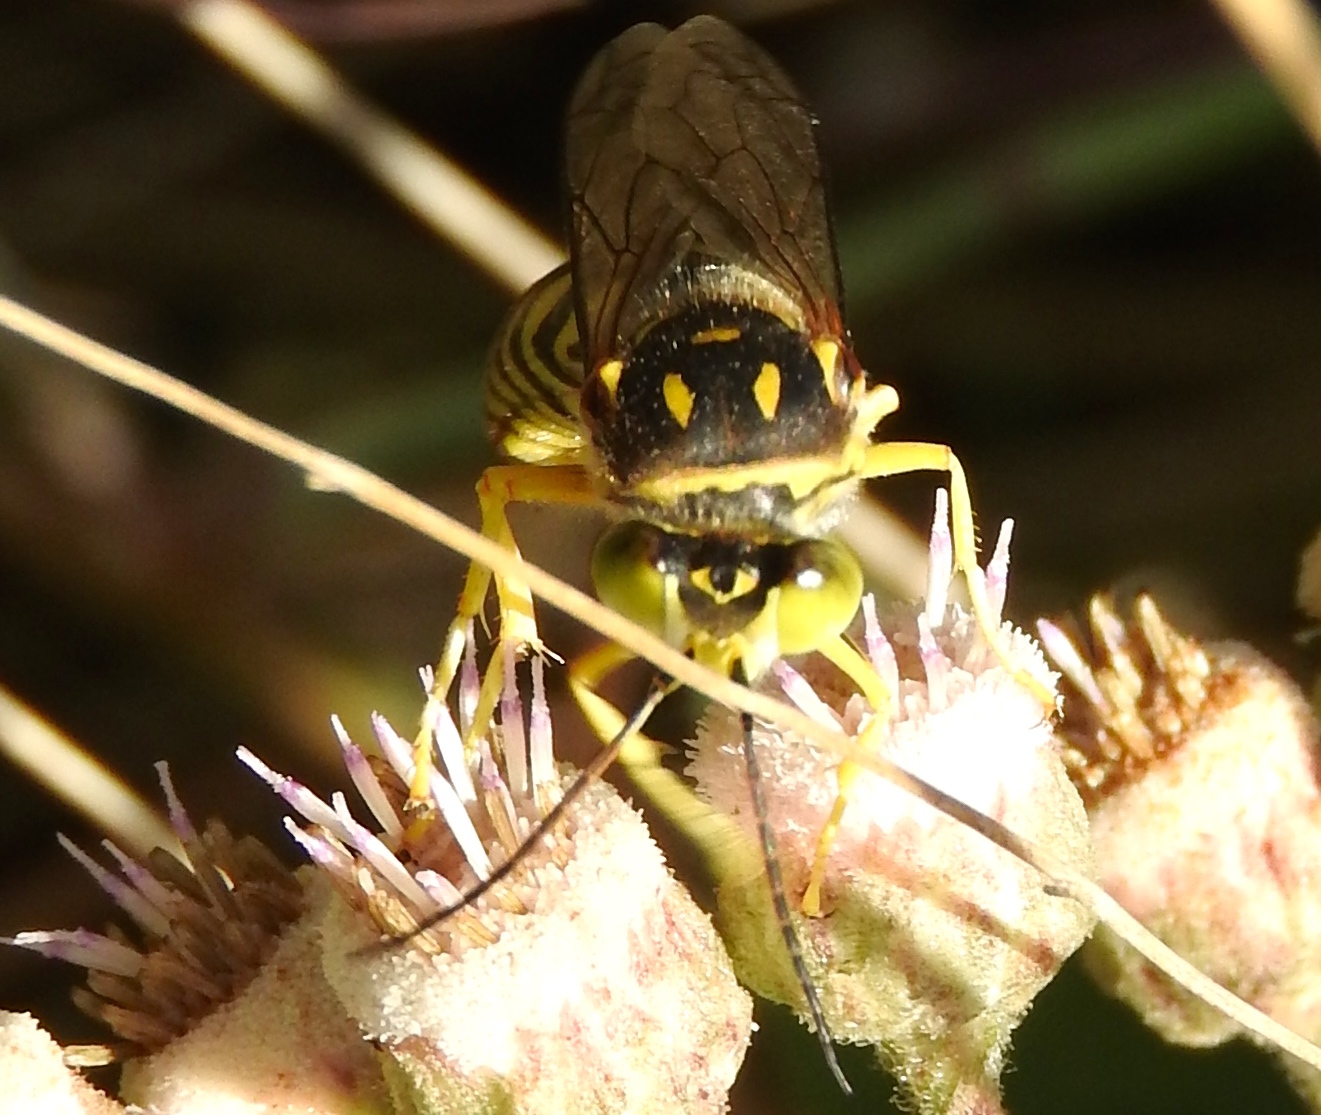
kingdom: Animalia
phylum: Arthropoda
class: Insecta
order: Hymenoptera
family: Crabronidae
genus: Steniolia
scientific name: Steniolia
